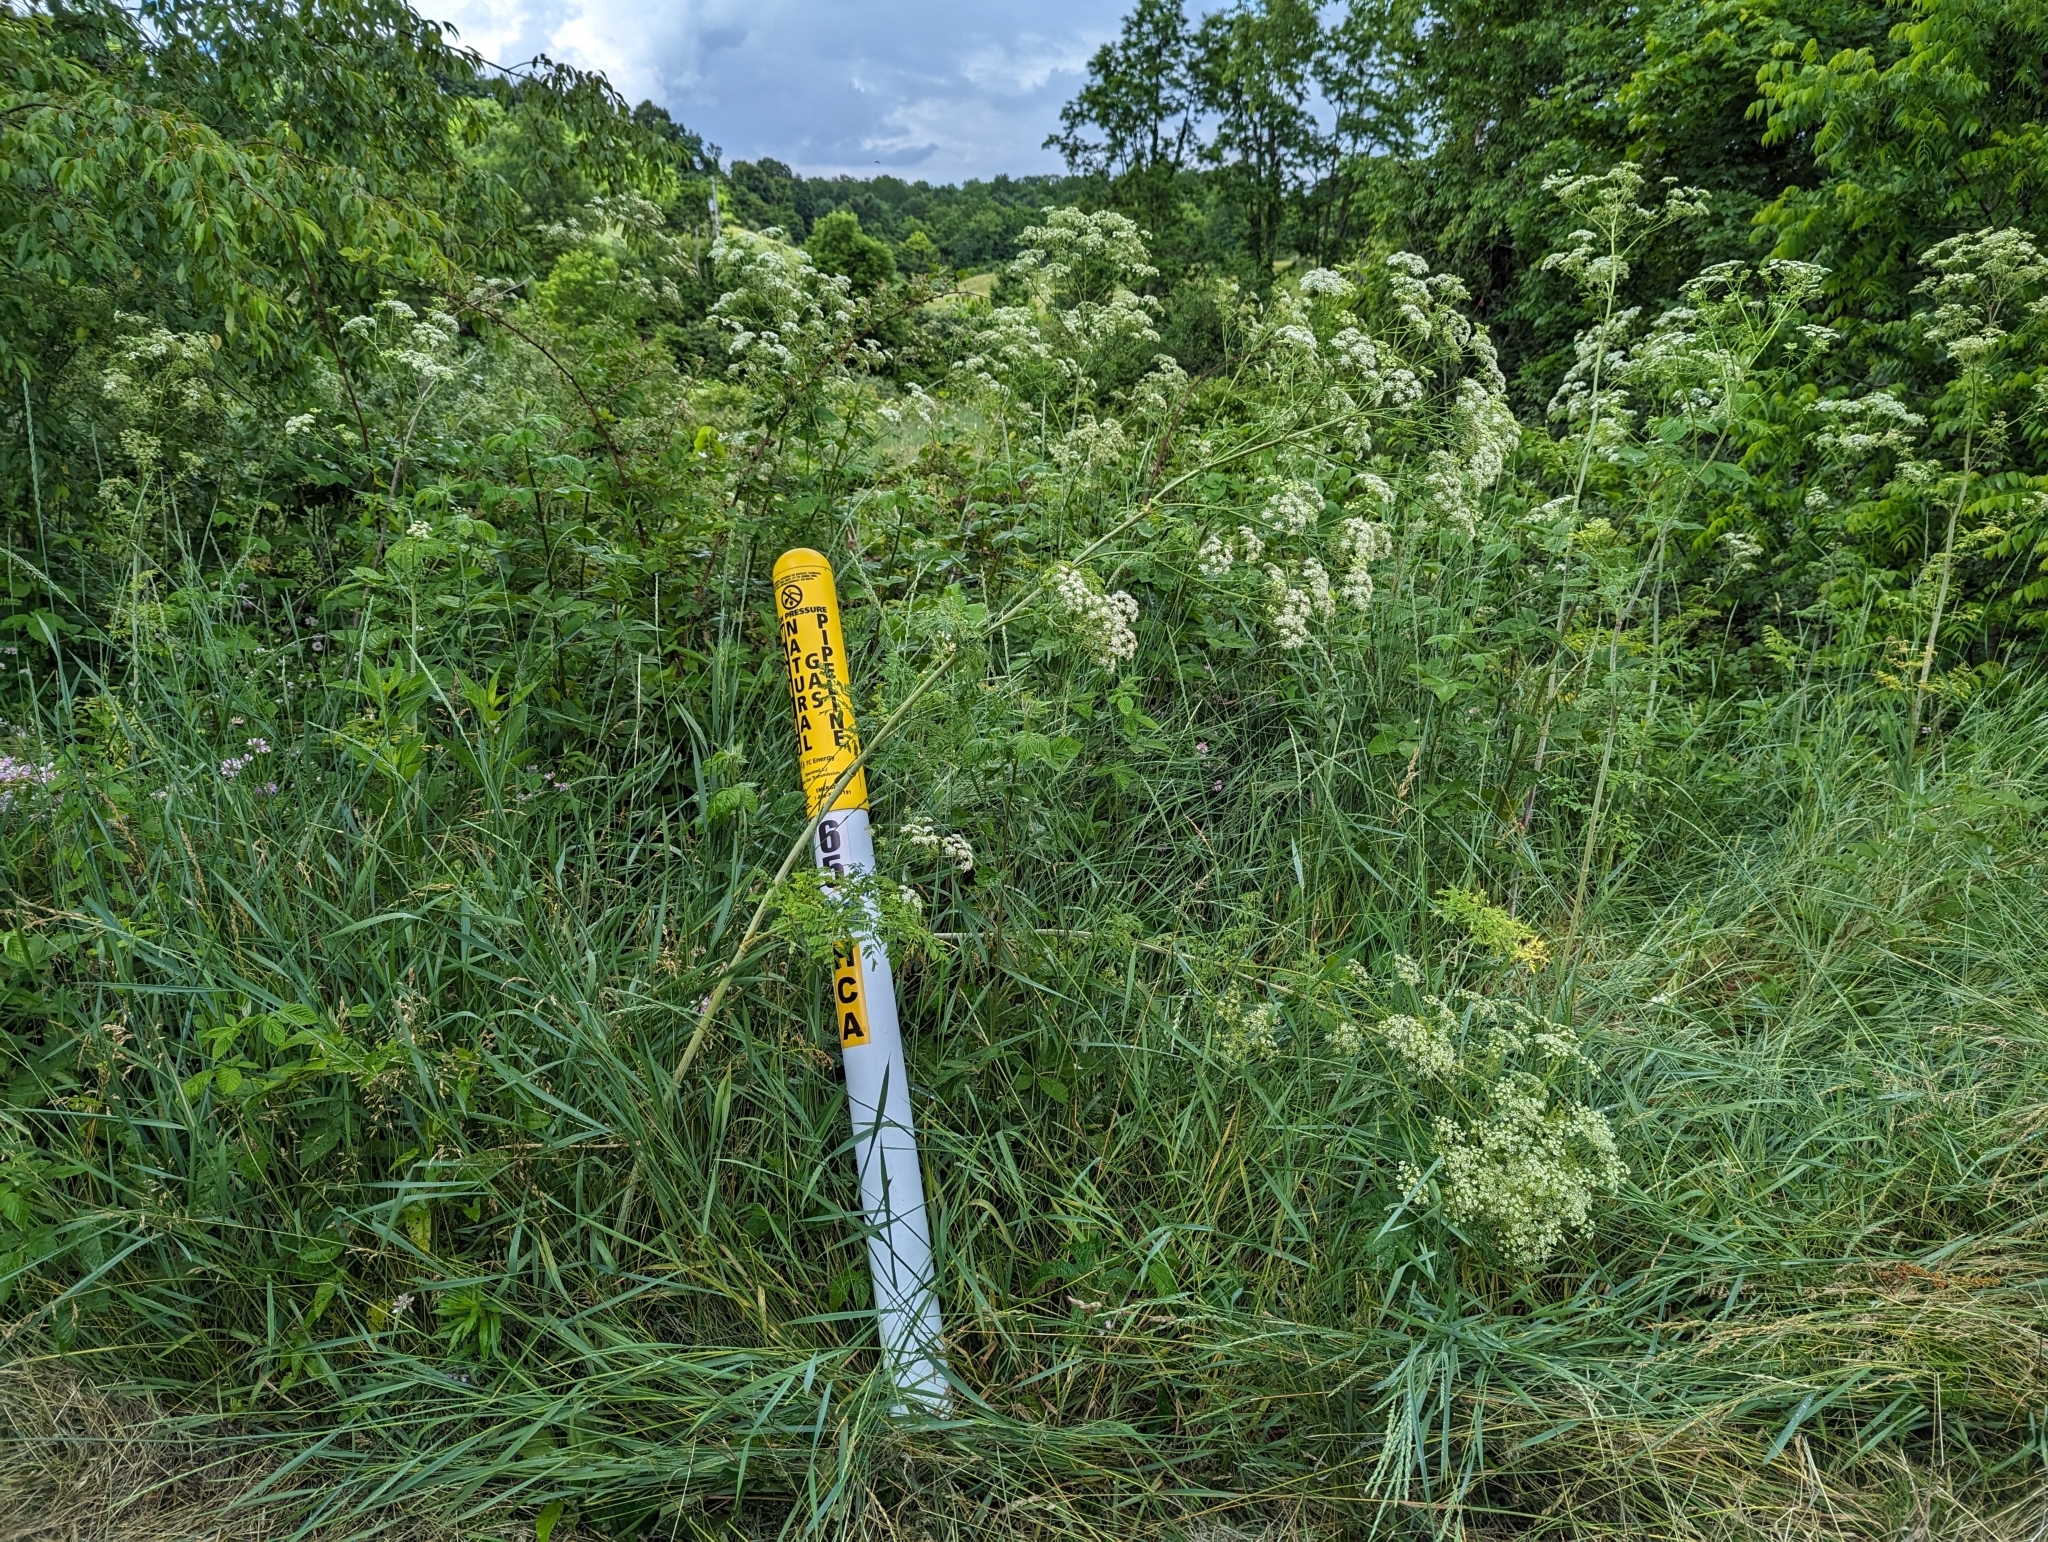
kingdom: Plantae
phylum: Tracheophyta
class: Magnoliopsida
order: Apiales
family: Apiaceae
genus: Conium
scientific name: Conium maculatum
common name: Hemlock
